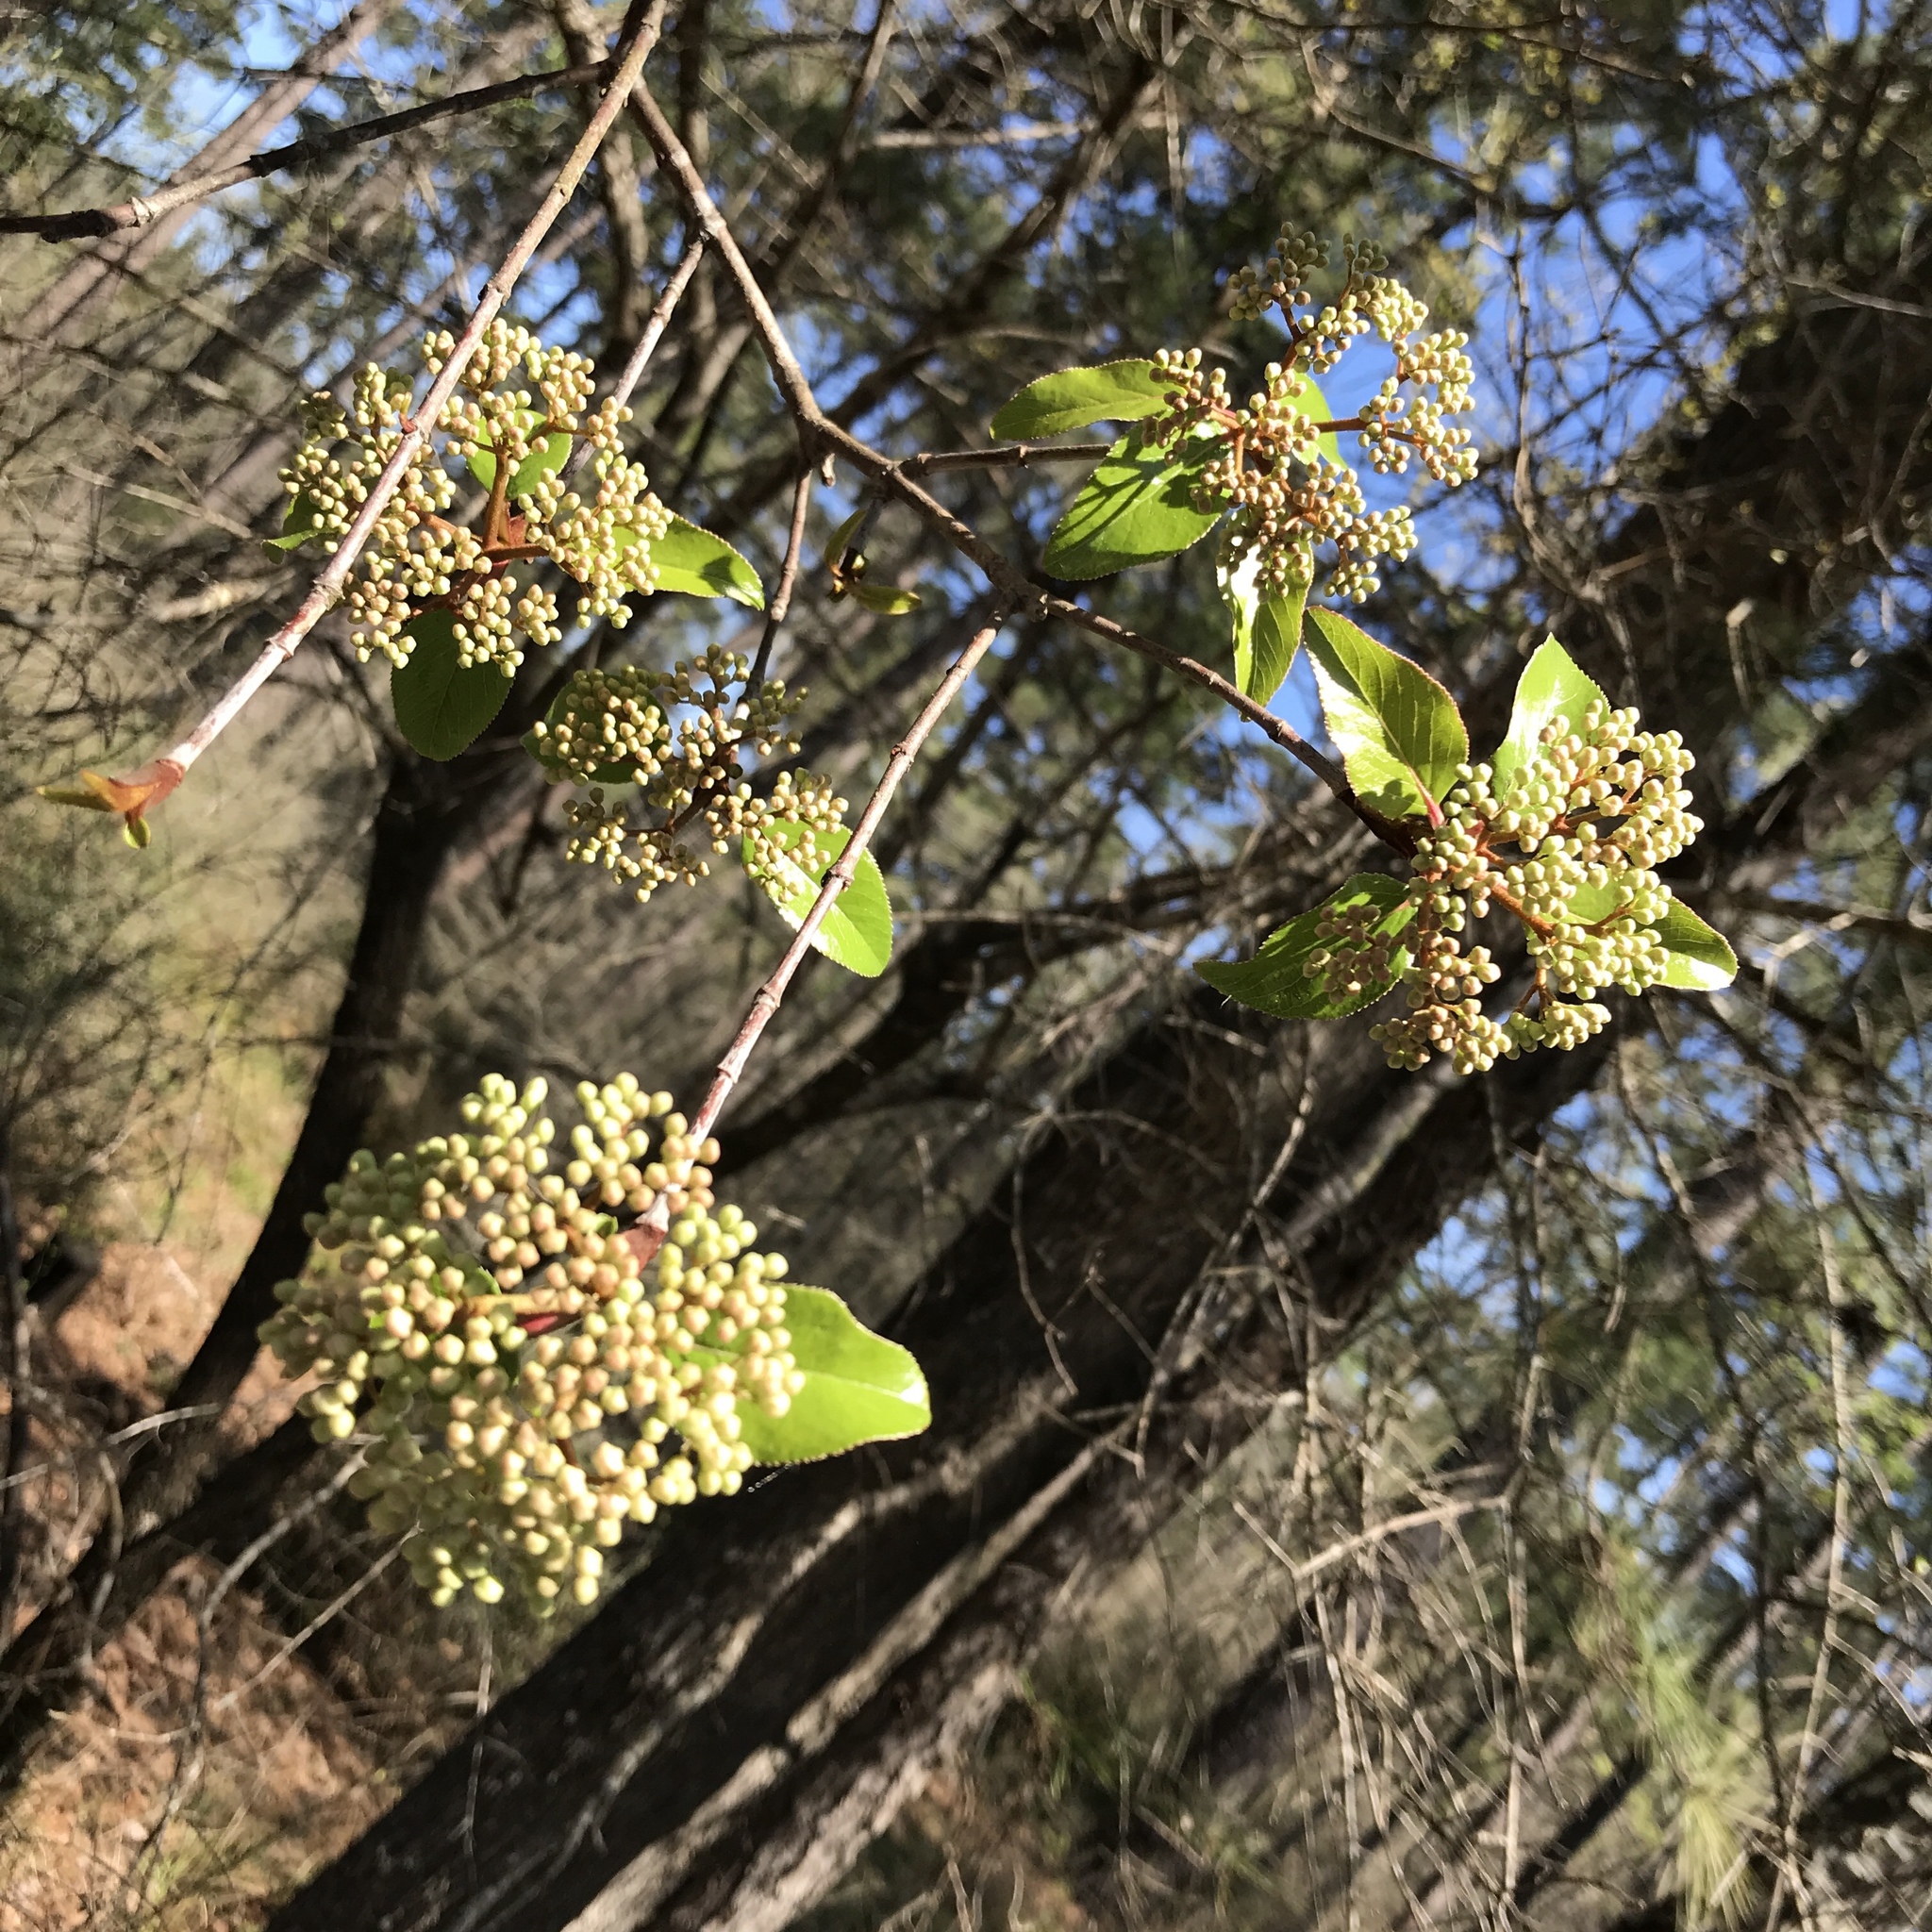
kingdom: Plantae
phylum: Tracheophyta
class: Magnoliopsida
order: Dipsacales
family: Viburnaceae
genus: Viburnum
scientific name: Viburnum rufidulum
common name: Blue haw
